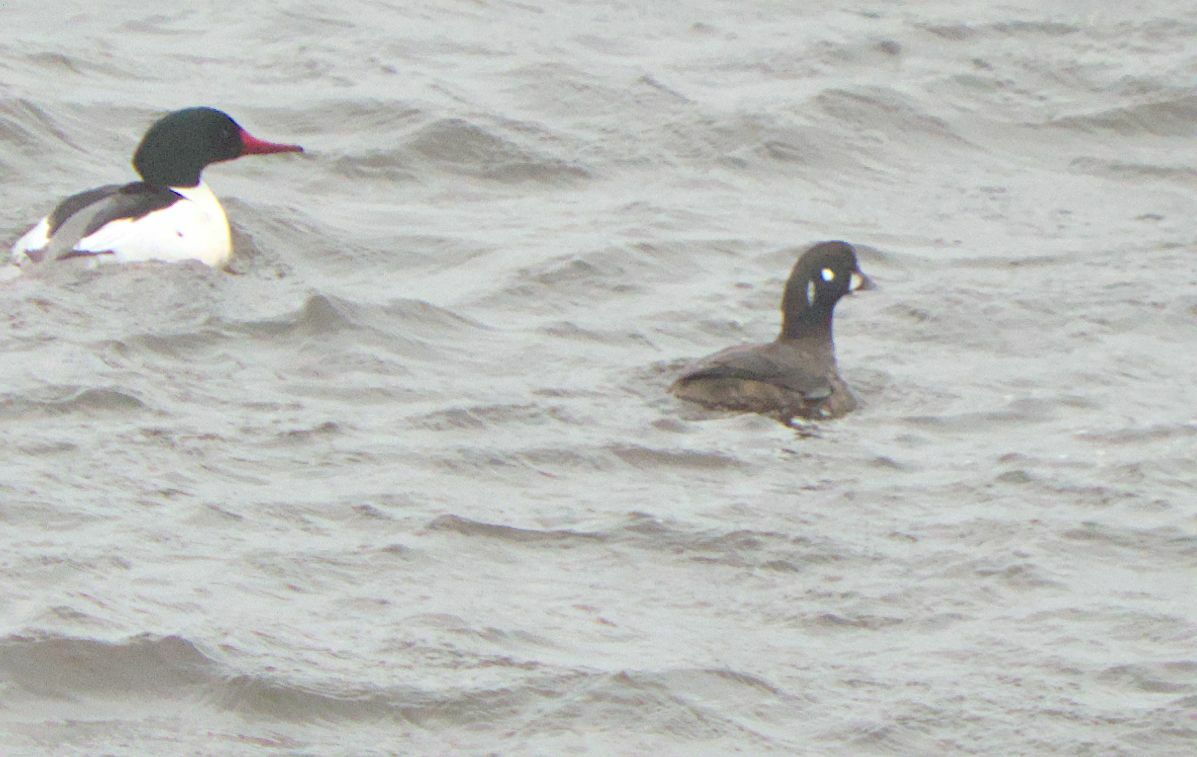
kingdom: Animalia
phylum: Chordata
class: Aves
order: Anseriformes
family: Anatidae
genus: Histrionicus
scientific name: Histrionicus histrionicus
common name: Harlequin duck
